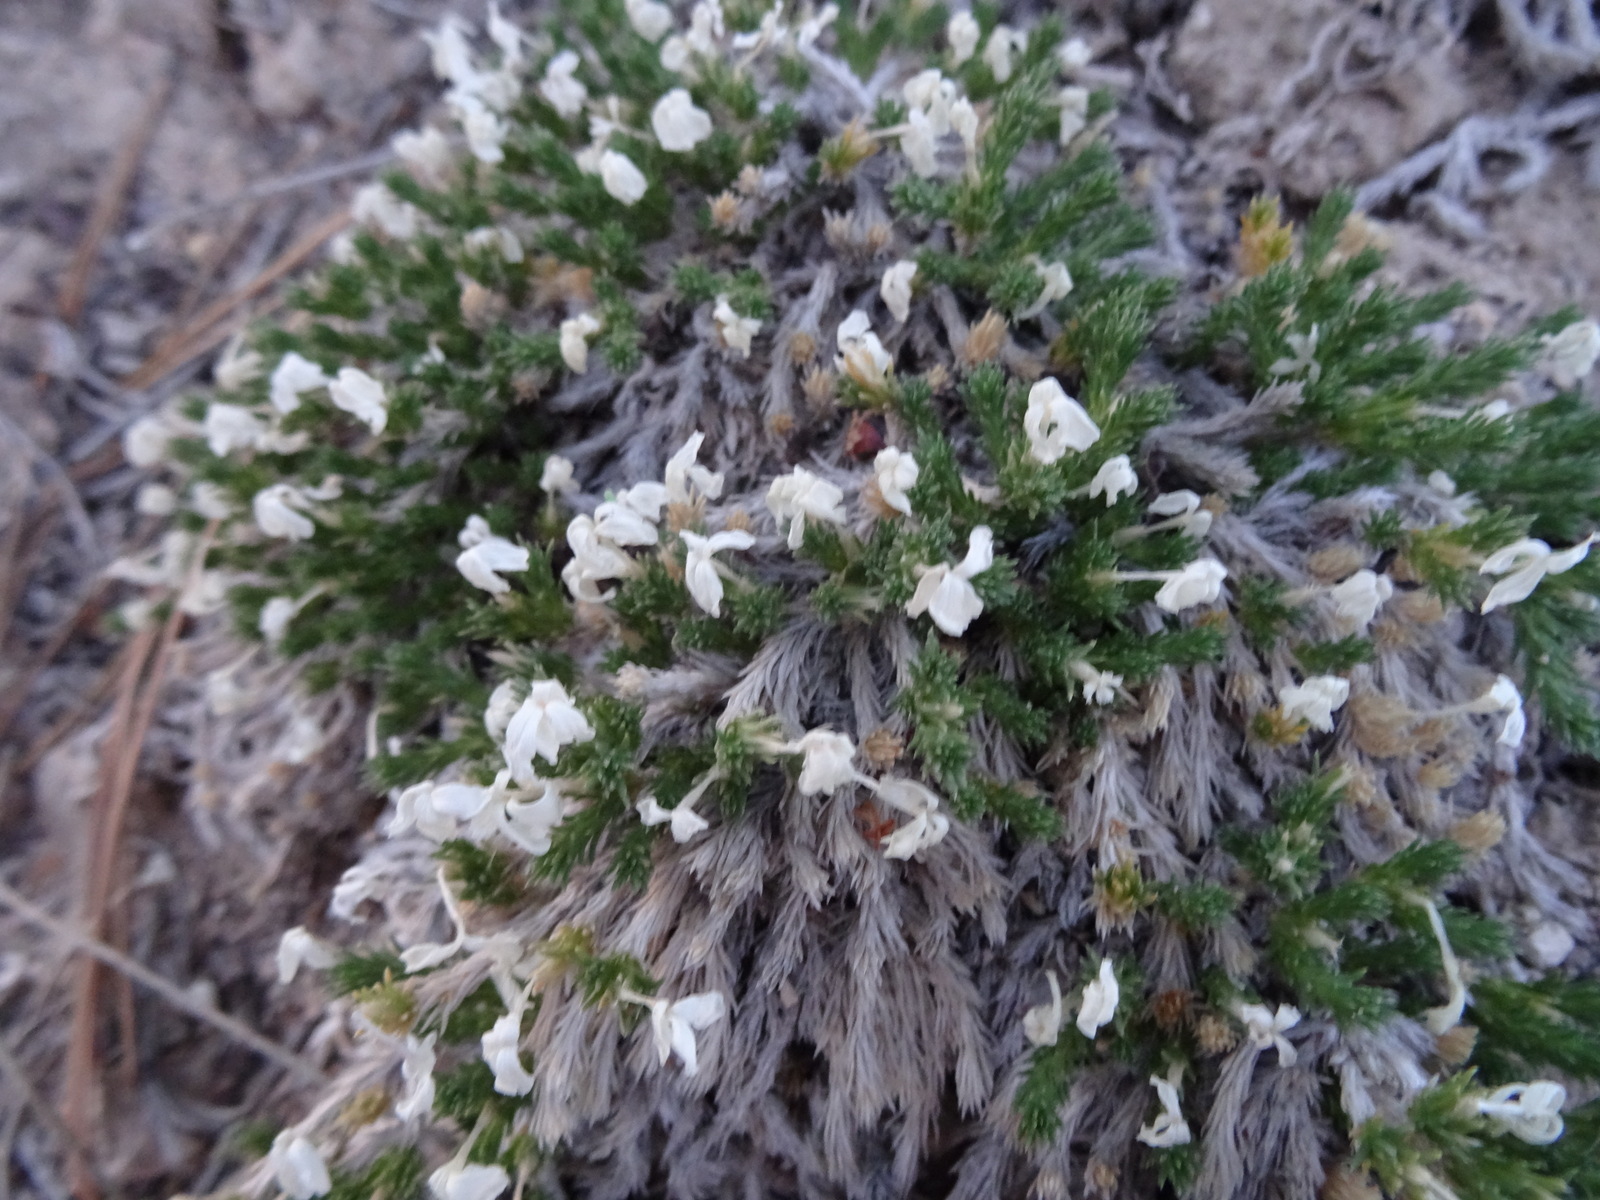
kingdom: Plantae
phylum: Tracheophyta
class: Magnoliopsida
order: Ericales
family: Polemoniaceae
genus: Linanthus
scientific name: Linanthus caespitosus
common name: Mat prickly phlox
